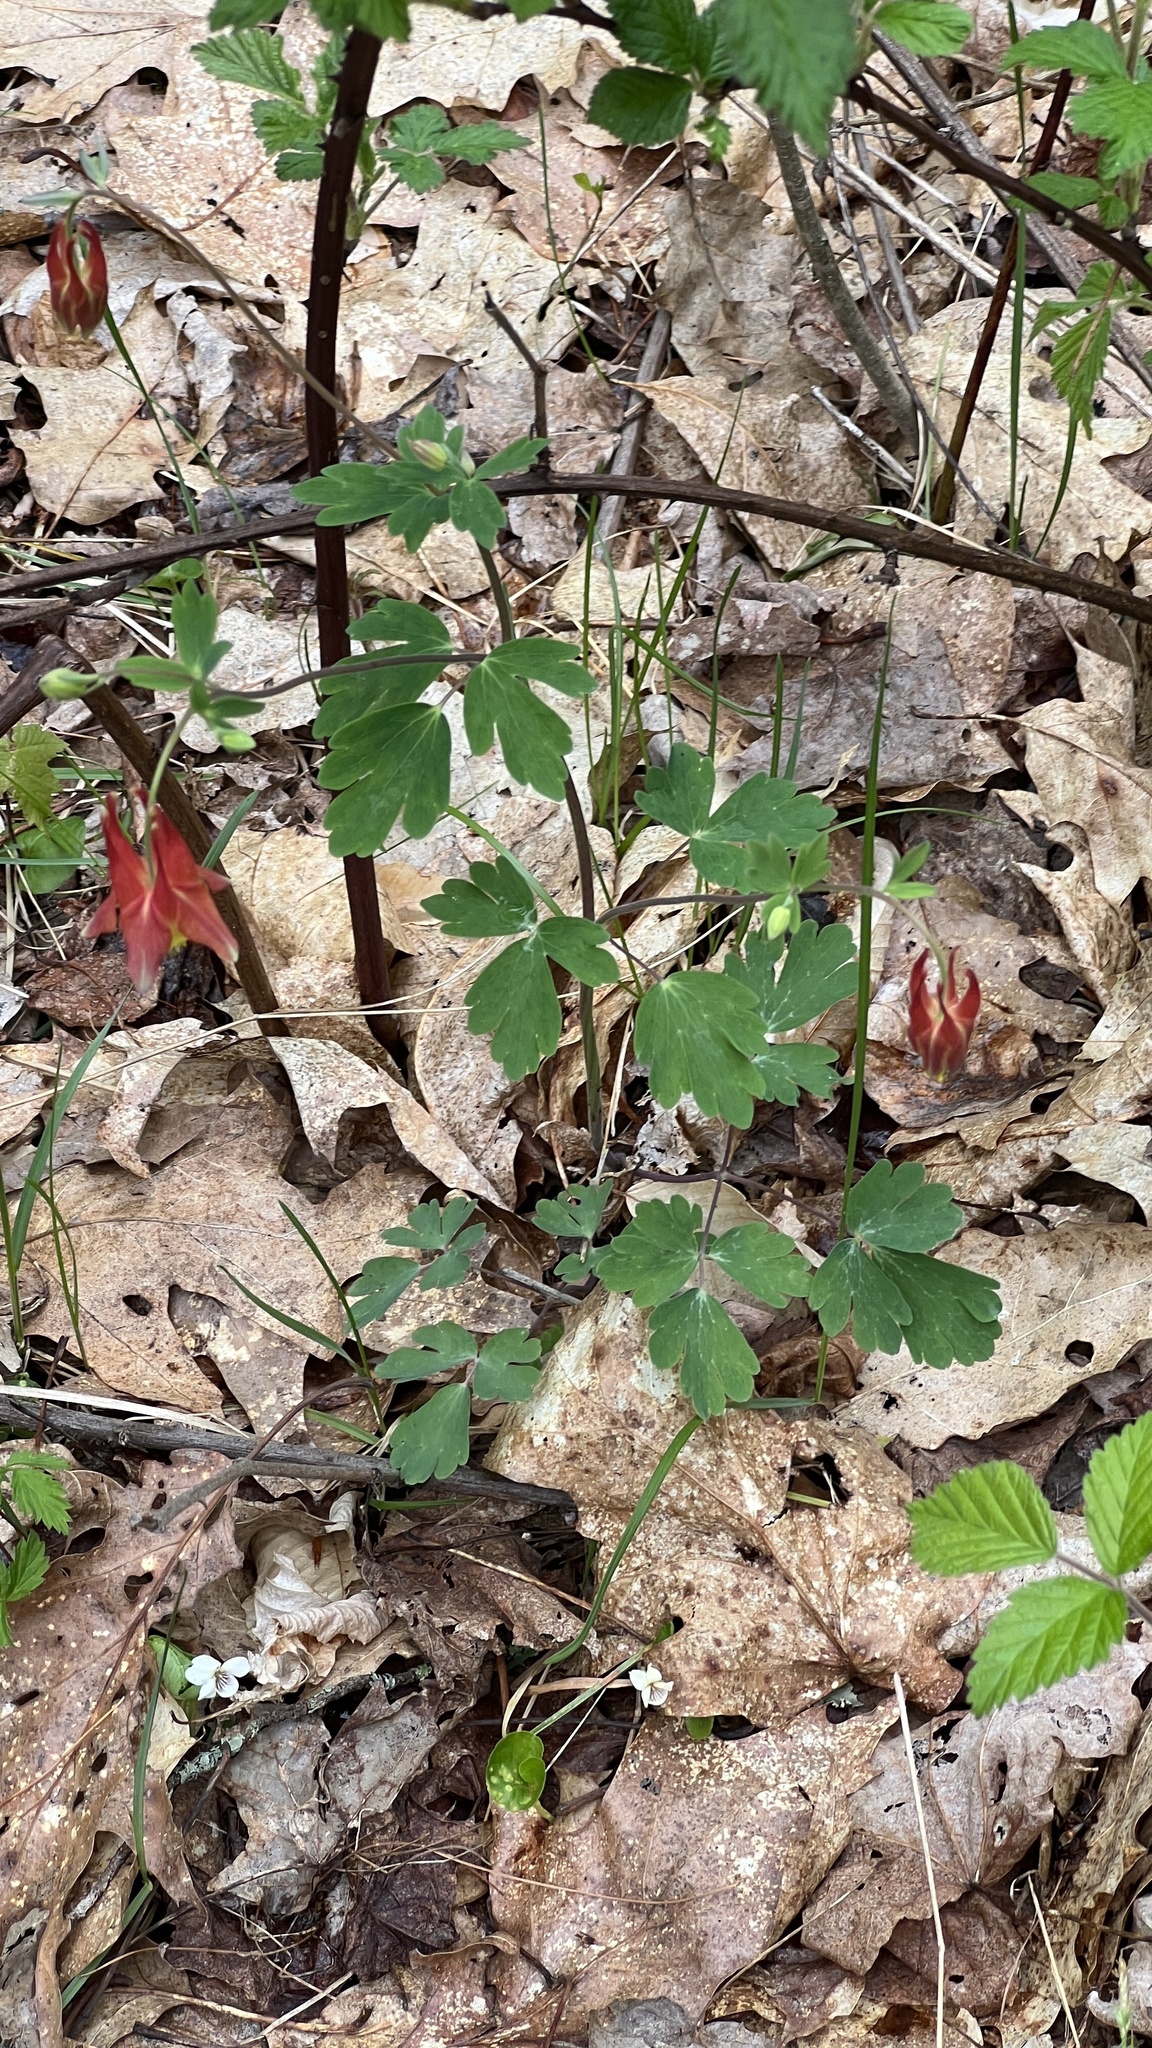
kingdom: Plantae
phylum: Tracheophyta
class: Magnoliopsida
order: Ranunculales
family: Ranunculaceae
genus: Aquilegia
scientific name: Aquilegia canadensis
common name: American columbine
